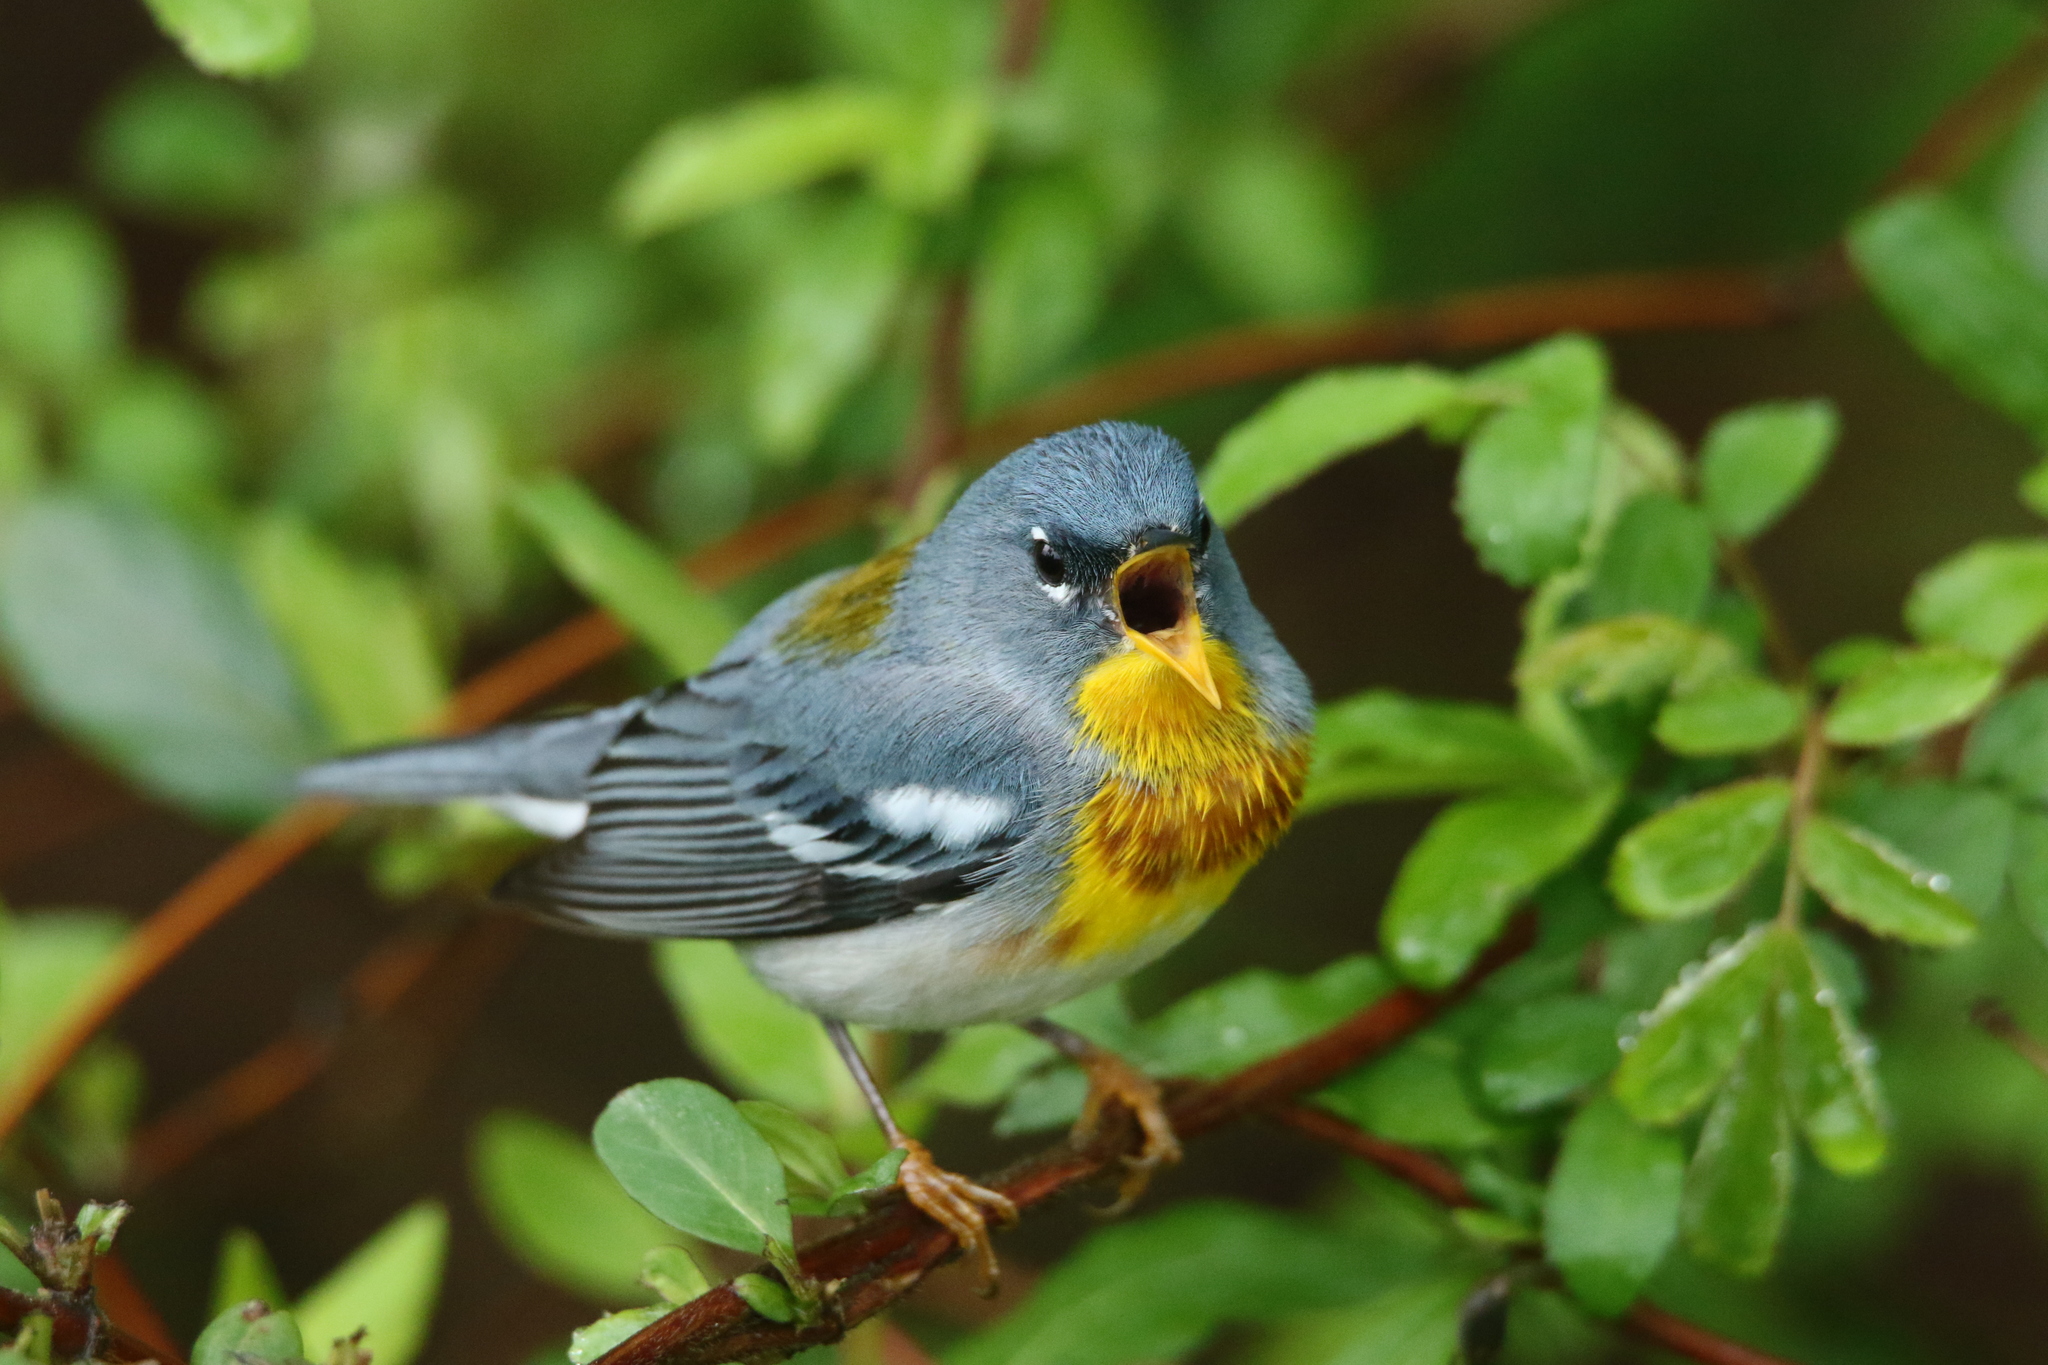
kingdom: Animalia
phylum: Chordata
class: Aves
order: Passeriformes
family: Parulidae
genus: Setophaga
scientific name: Setophaga americana
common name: Northern parula
